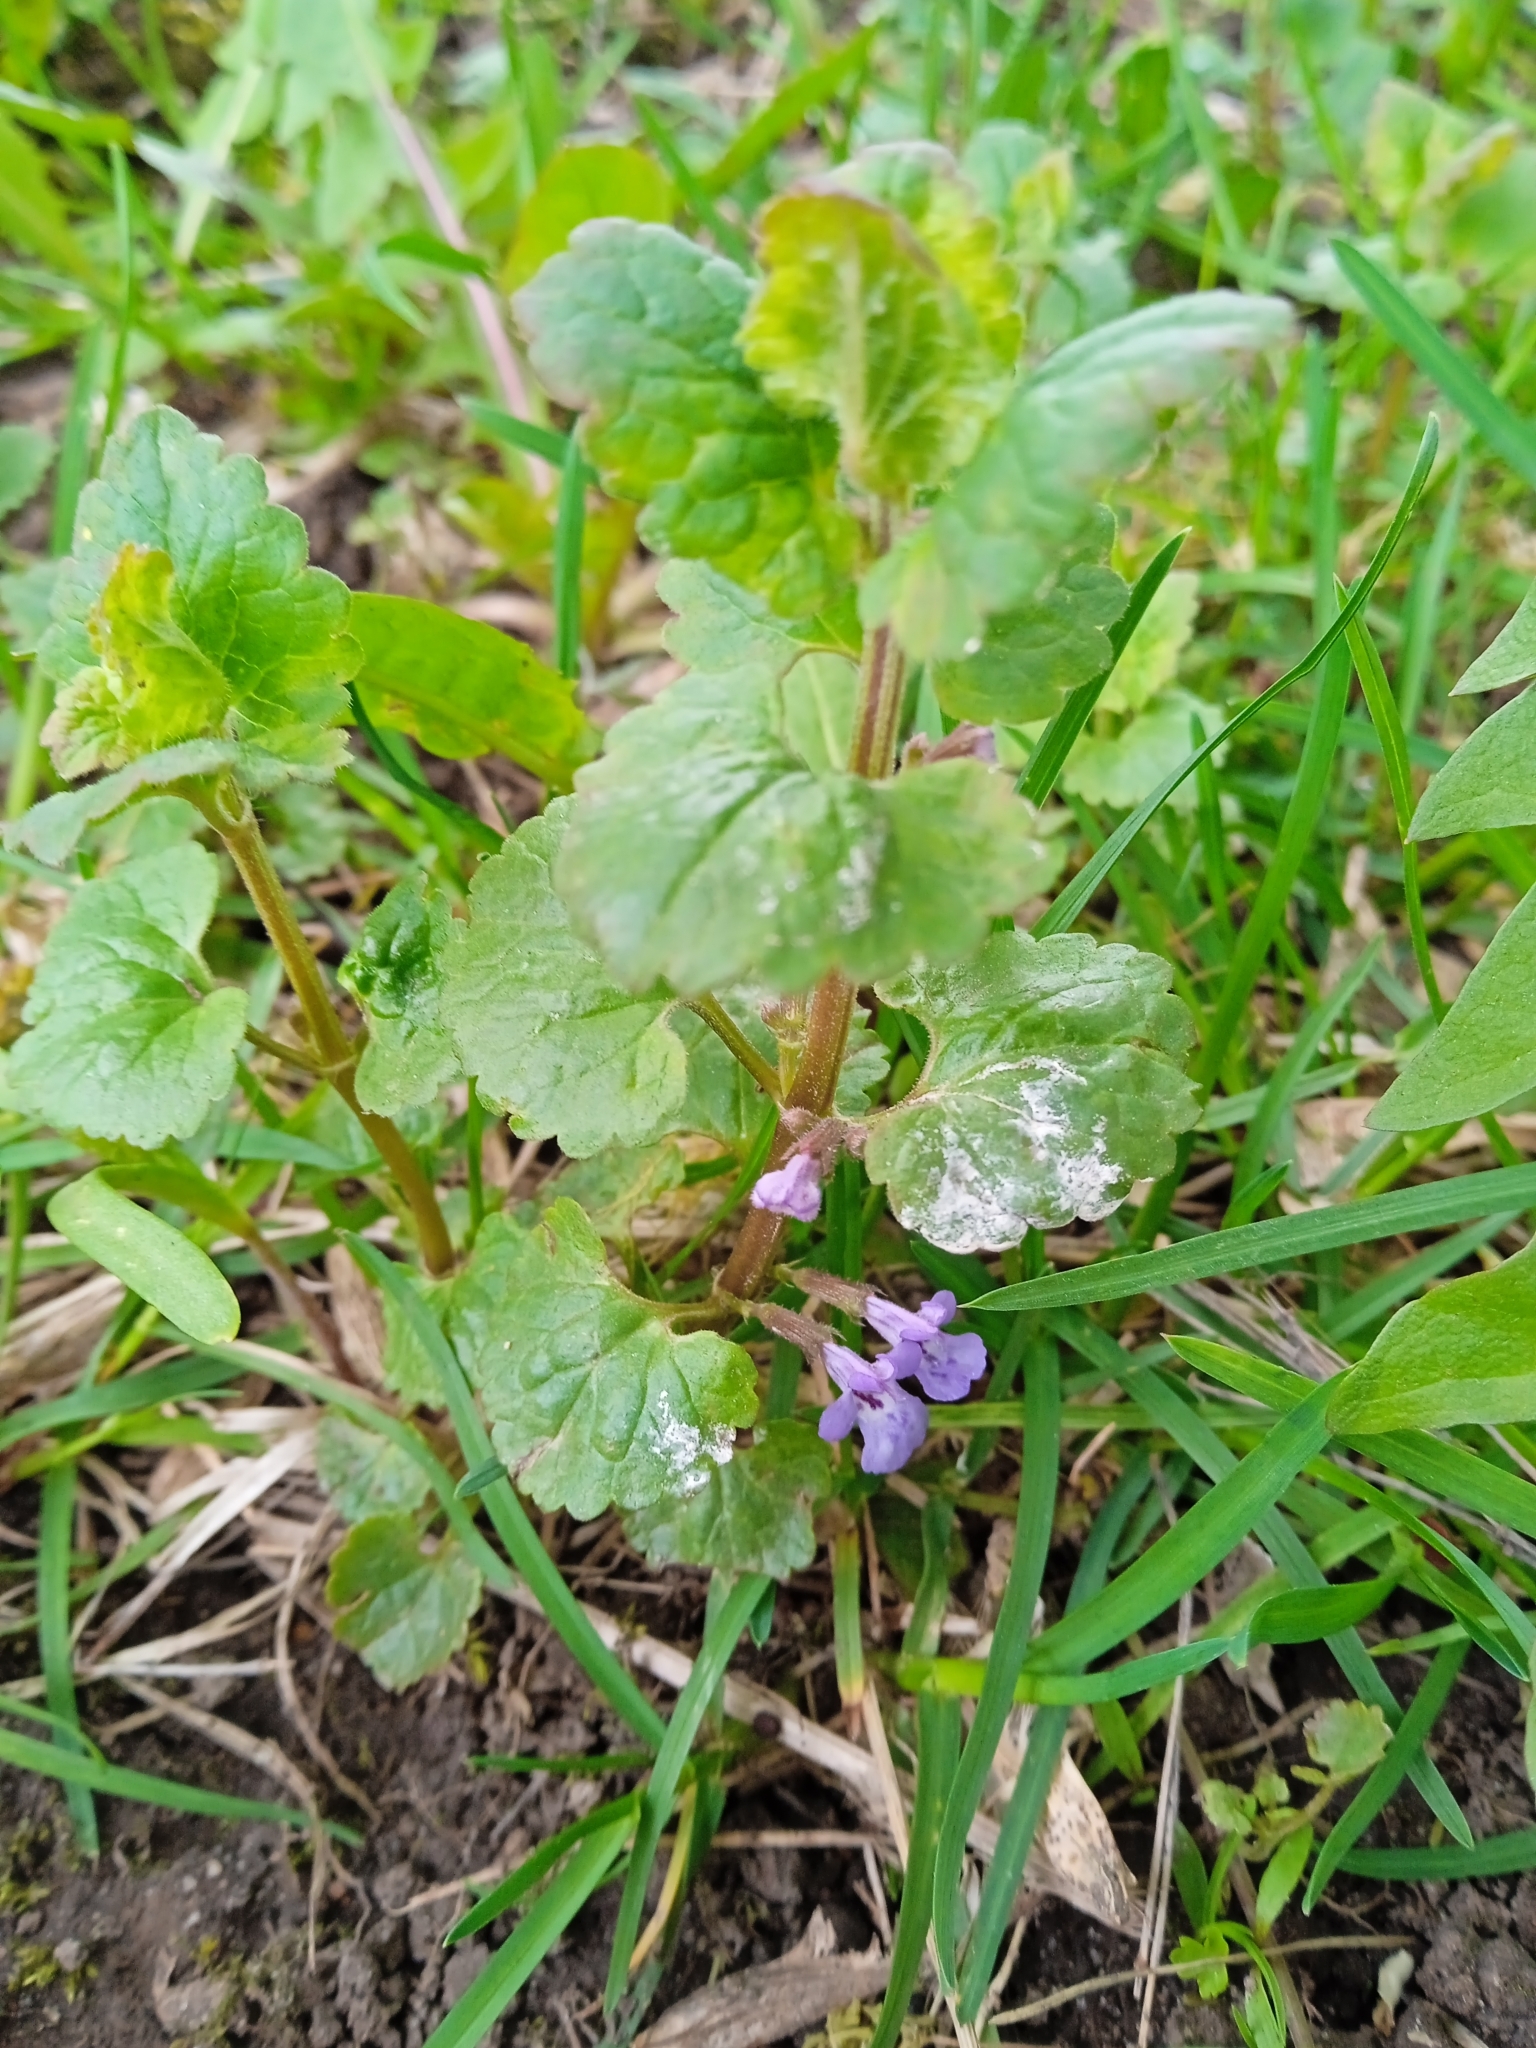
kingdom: Plantae
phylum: Tracheophyta
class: Magnoliopsida
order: Lamiales
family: Lamiaceae
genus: Glechoma
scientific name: Glechoma hederacea
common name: Ground ivy
